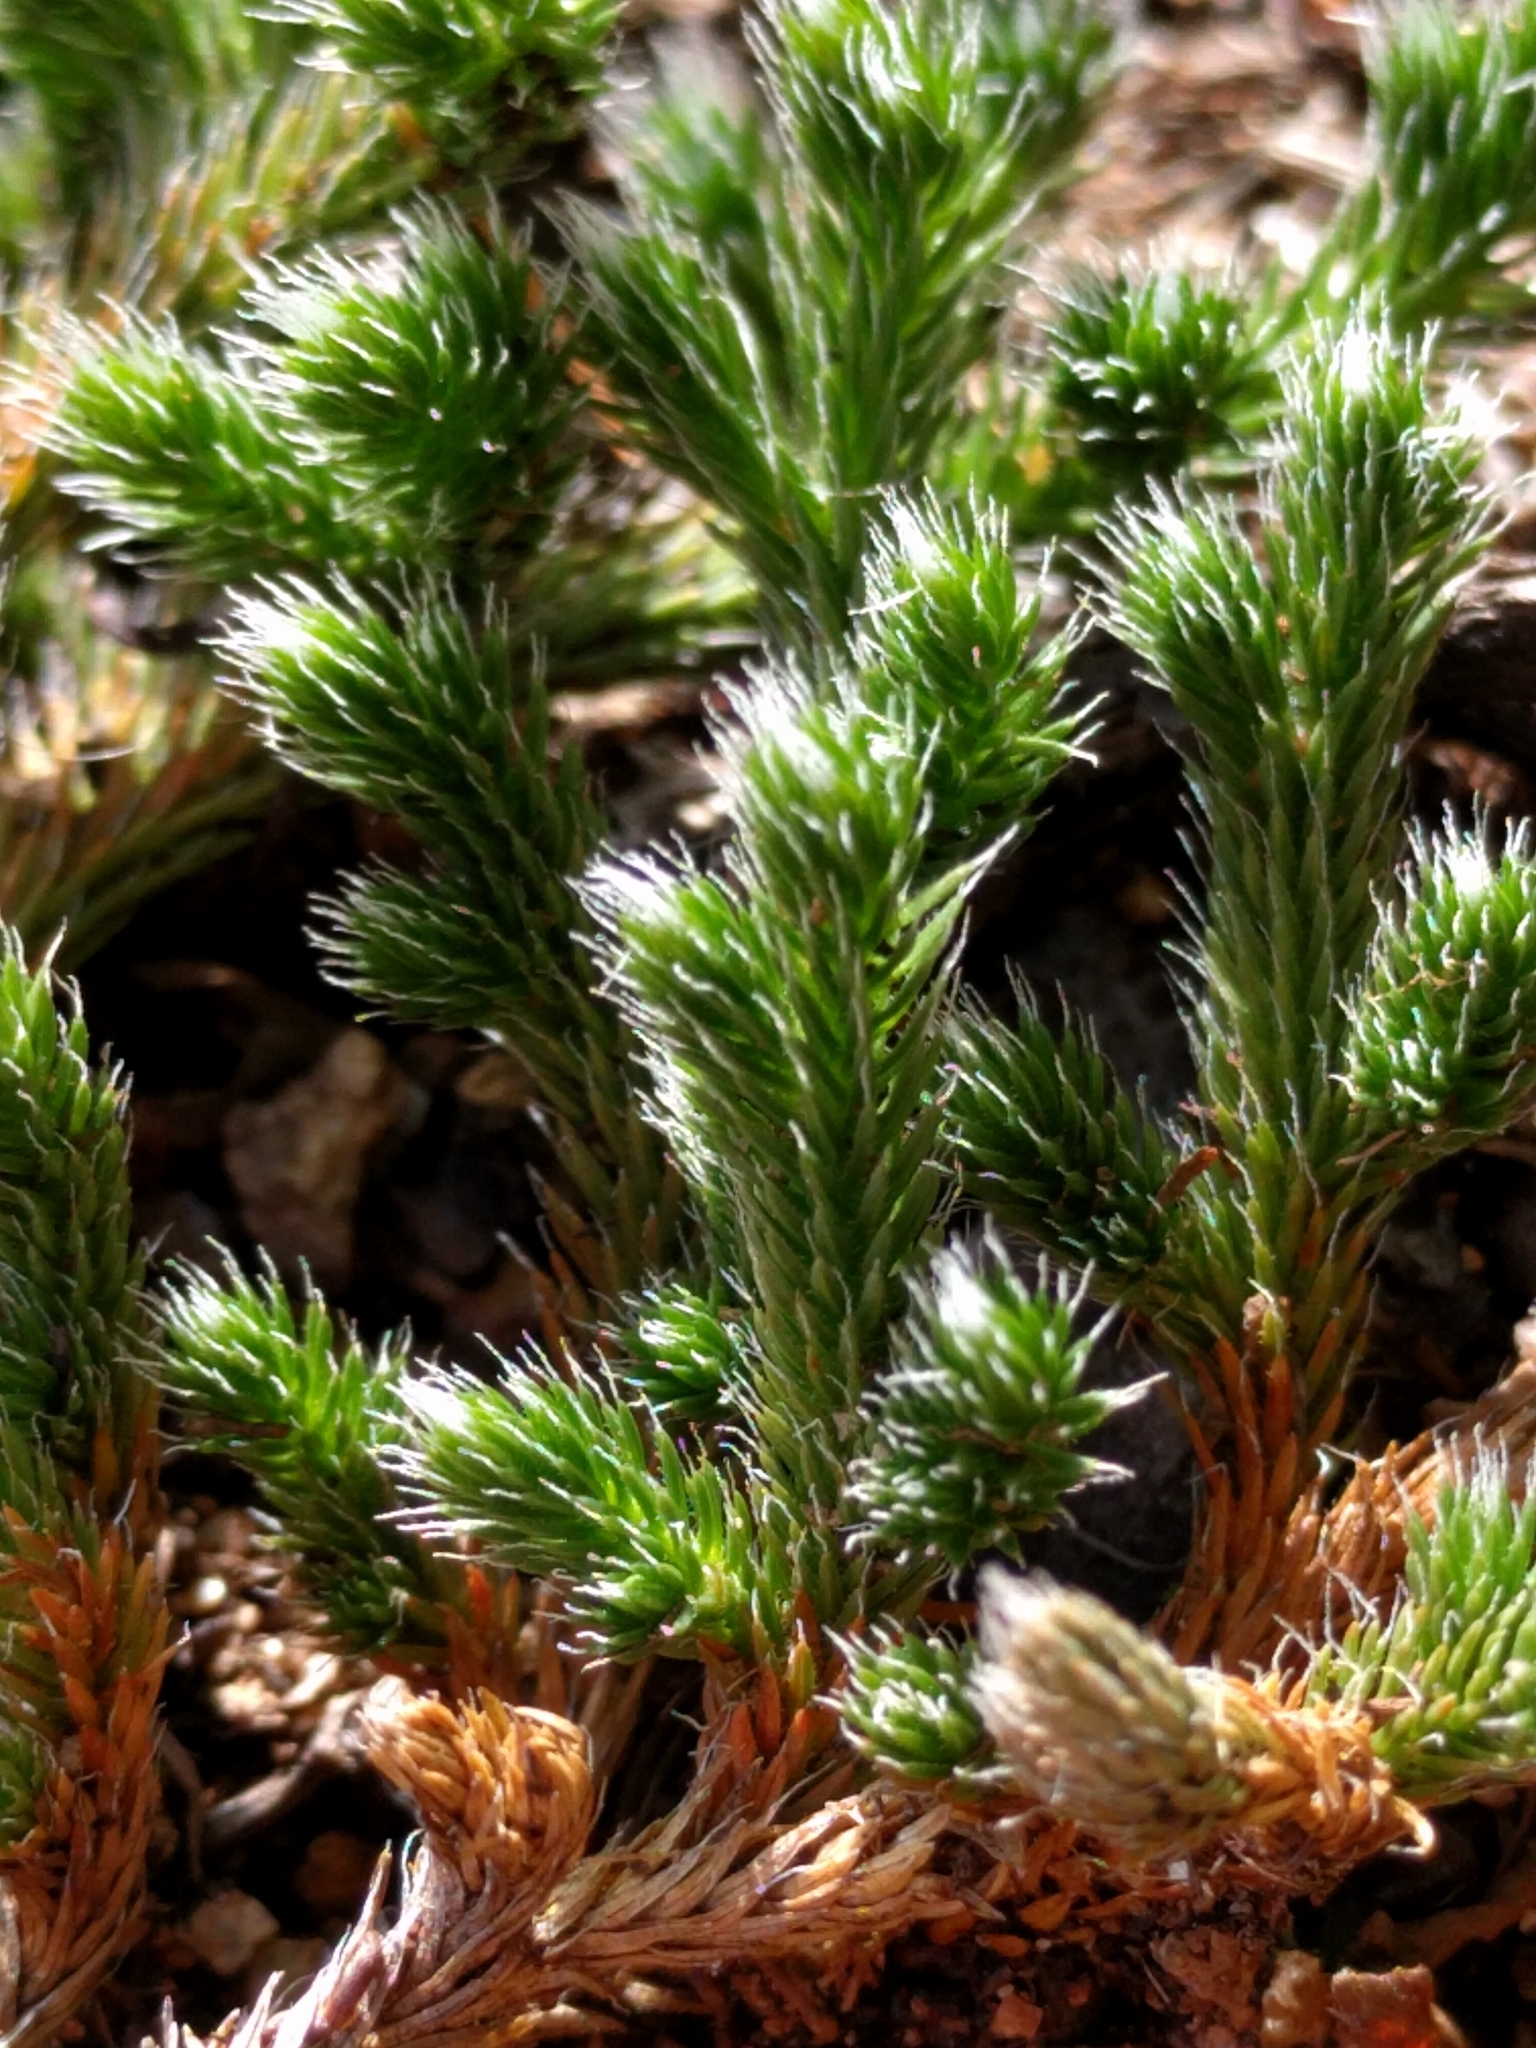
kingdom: Plantae
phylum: Tracheophyta
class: Lycopodiopsida
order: Selaginellales
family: Selaginellaceae
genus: Selaginella
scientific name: Selaginella rupestris
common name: Dwarf spikemoss
